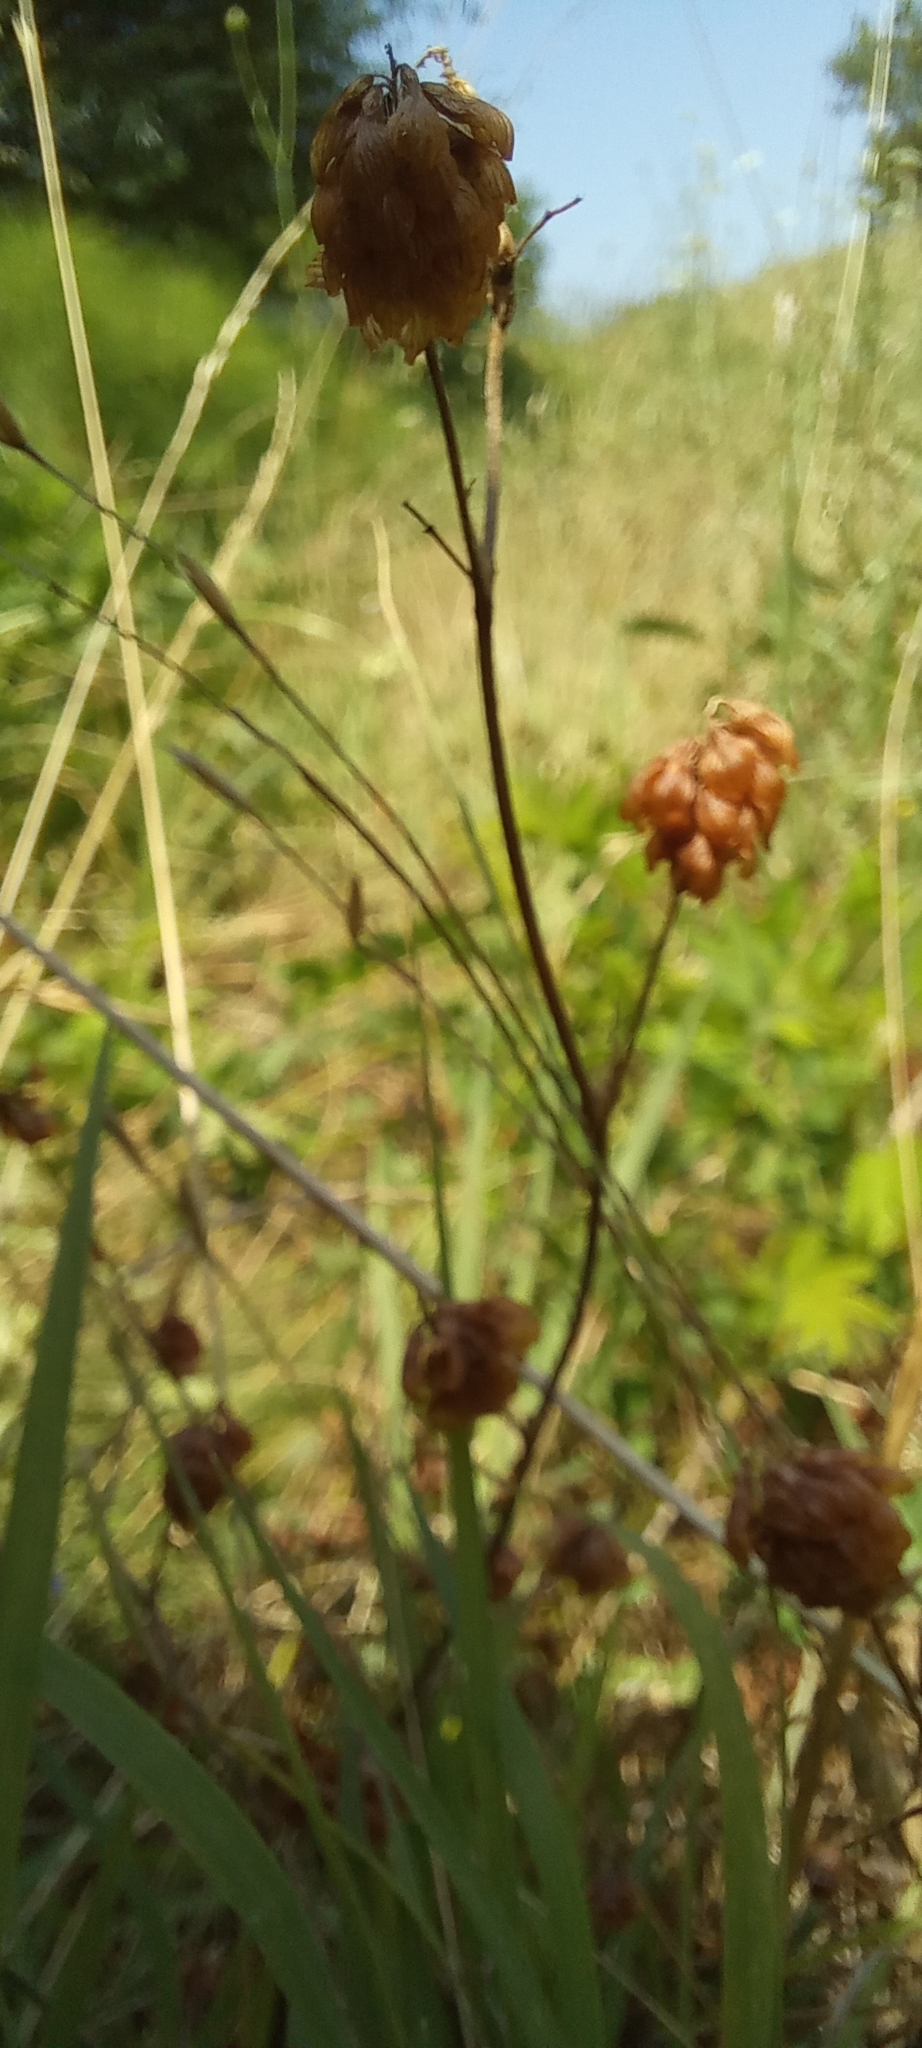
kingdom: Plantae
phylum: Tracheophyta
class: Magnoliopsida
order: Fabales
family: Fabaceae
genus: Trifolium
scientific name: Trifolium campestre
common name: Field clover
